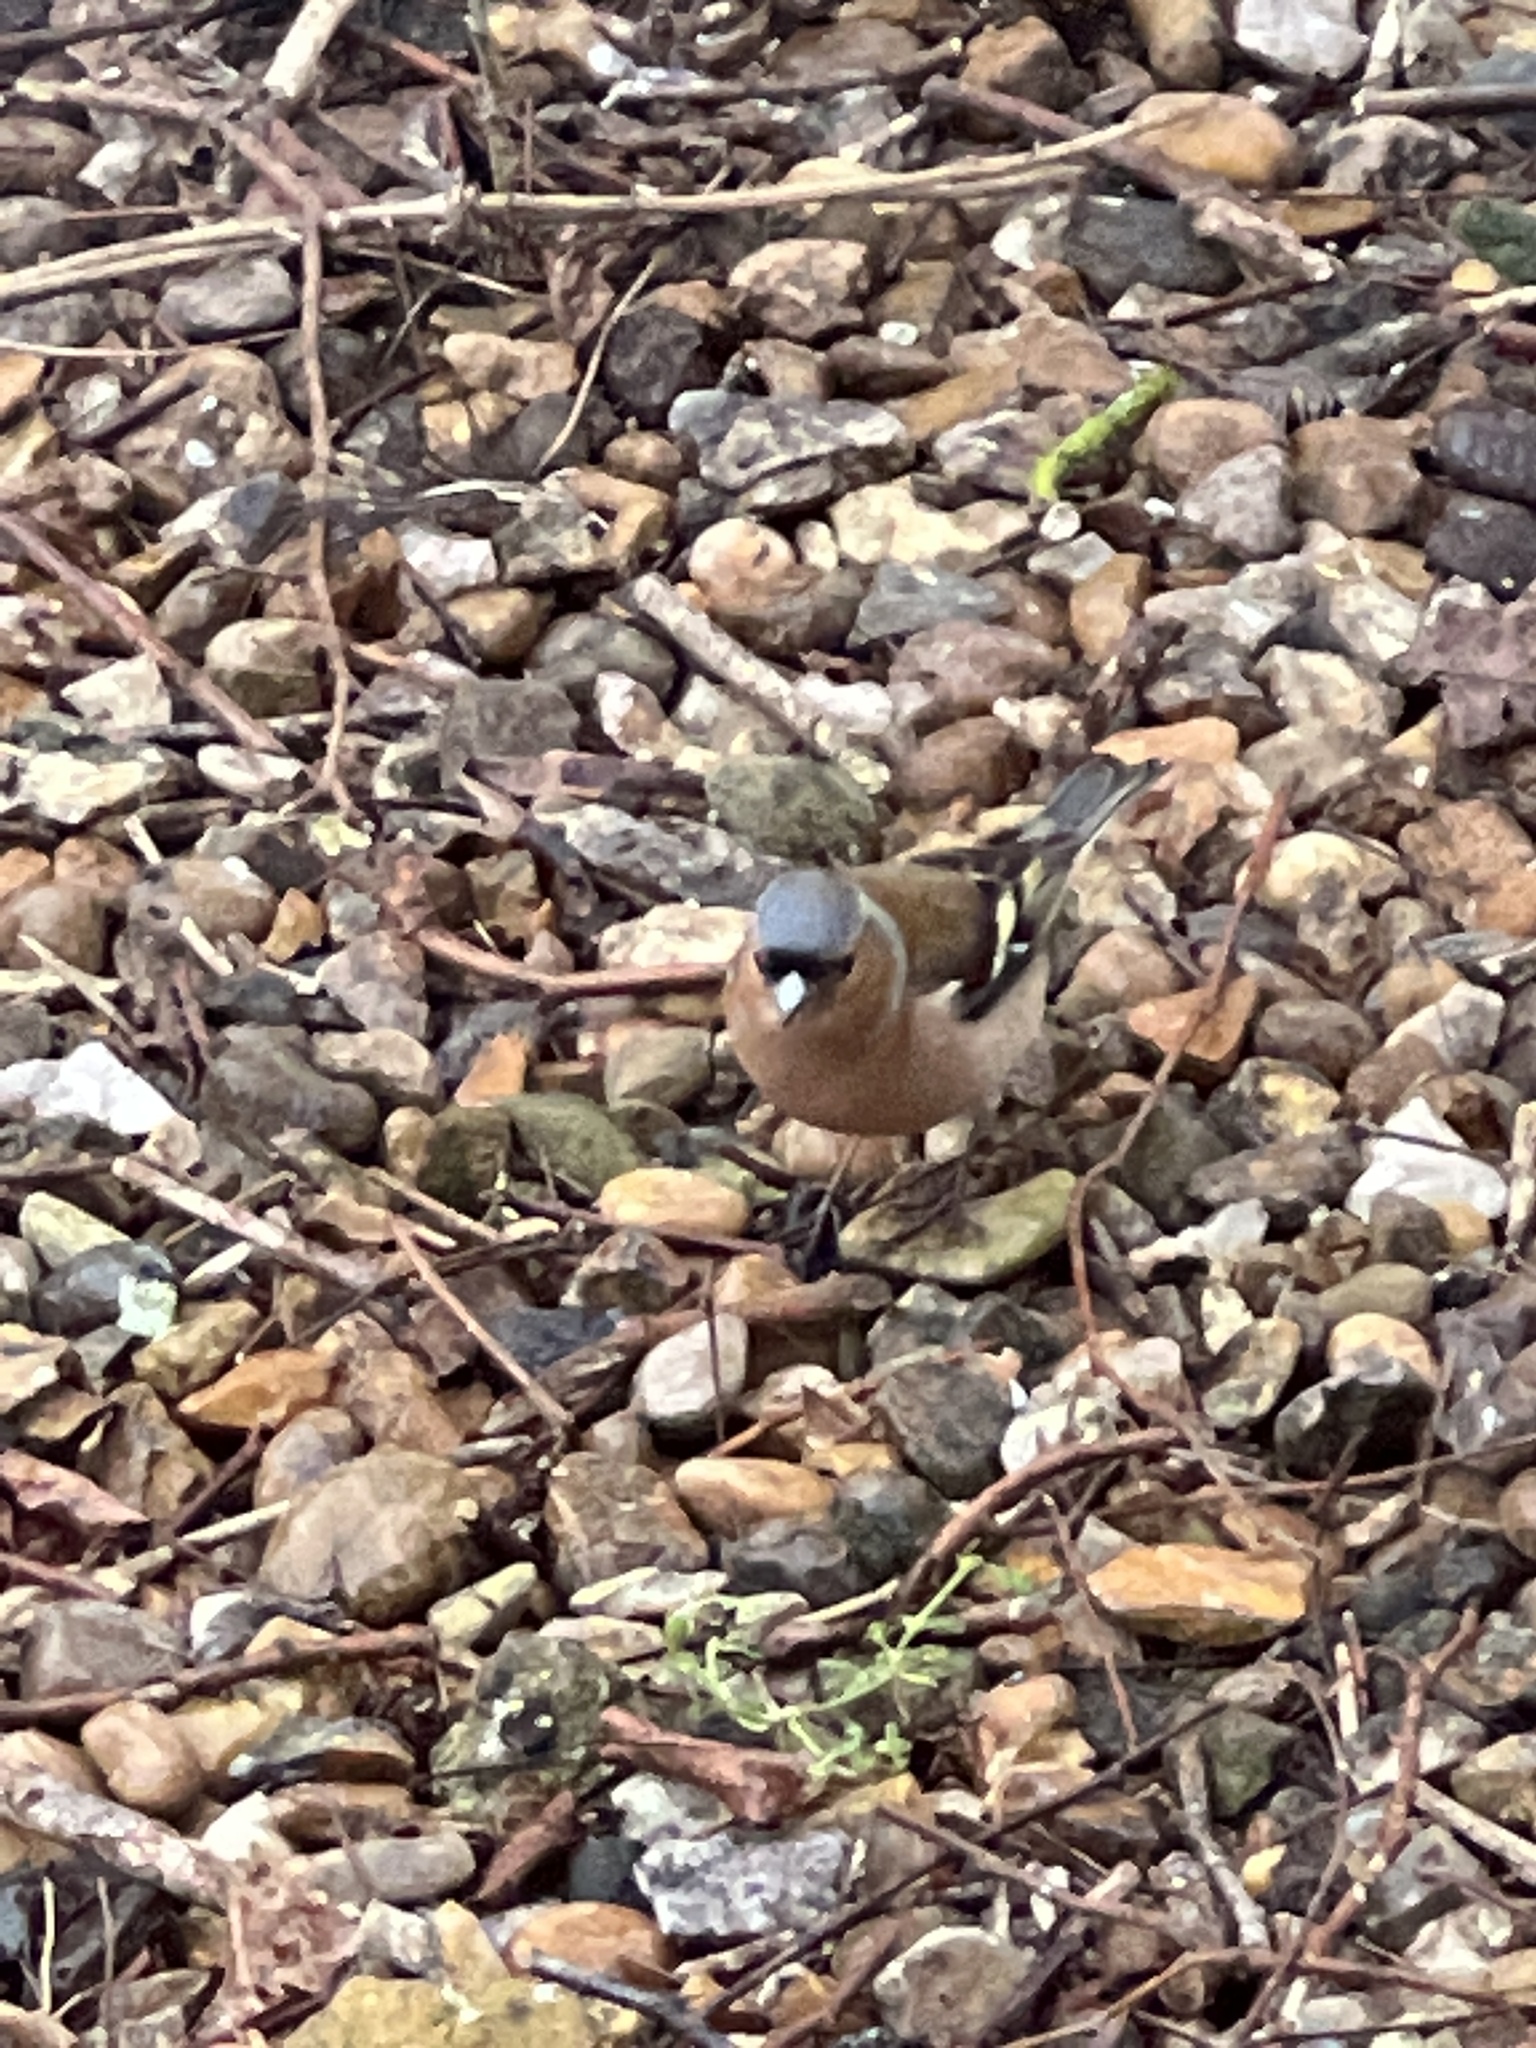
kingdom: Animalia
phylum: Chordata
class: Aves
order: Passeriformes
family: Fringillidae
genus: Fringilla
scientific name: Fringilla coelebs
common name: Common chaffinch
